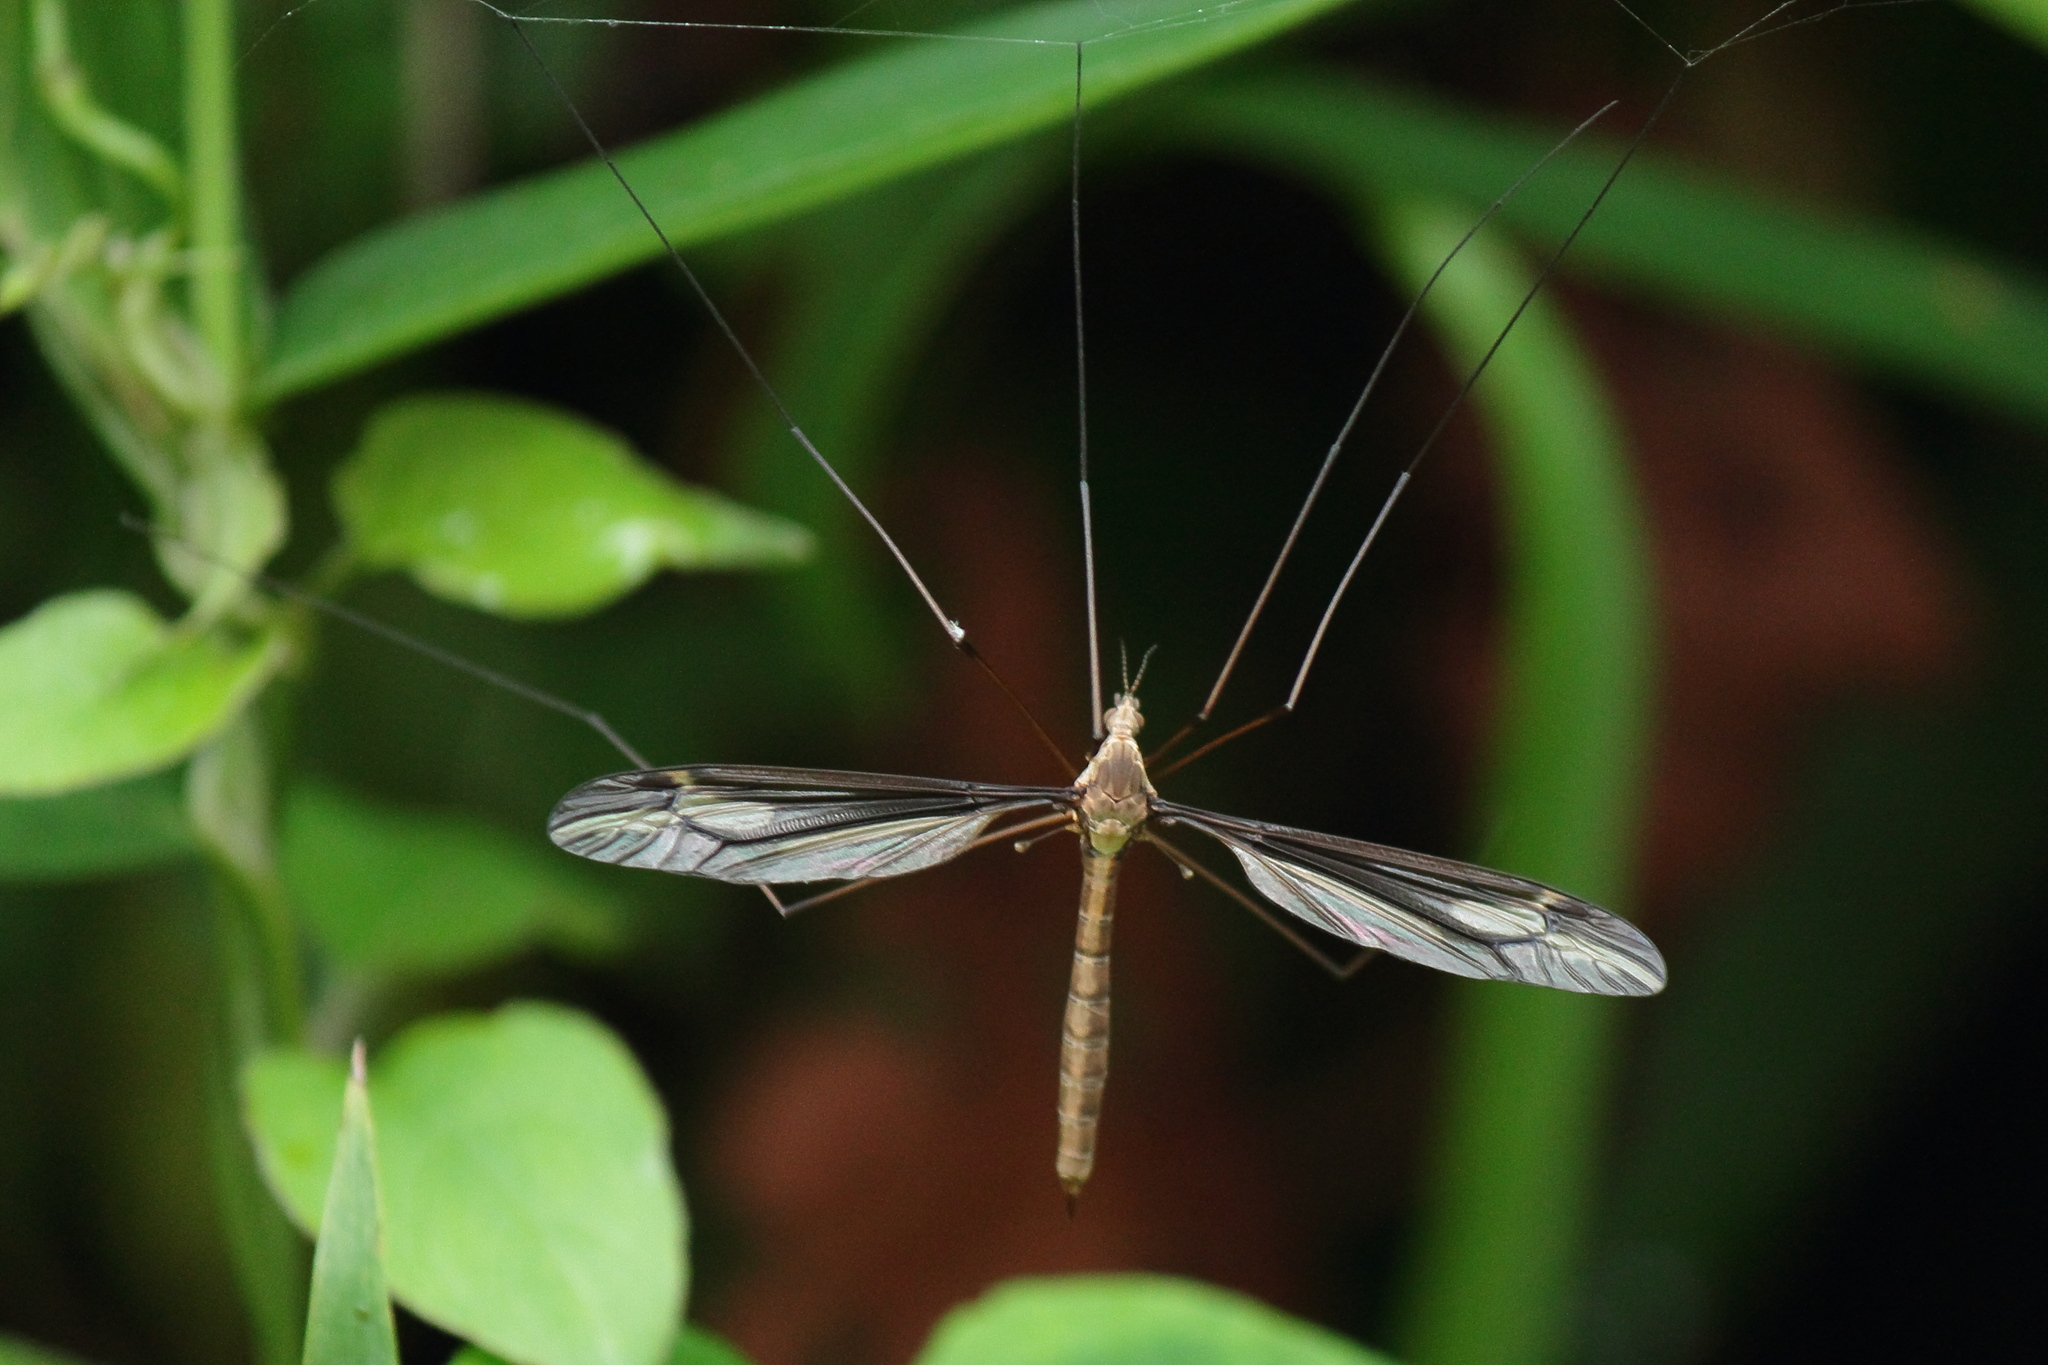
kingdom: Animalia
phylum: Arthropoda
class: Insecta
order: Diptera
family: Tipulidae
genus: Tipula
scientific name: Tipula nova
